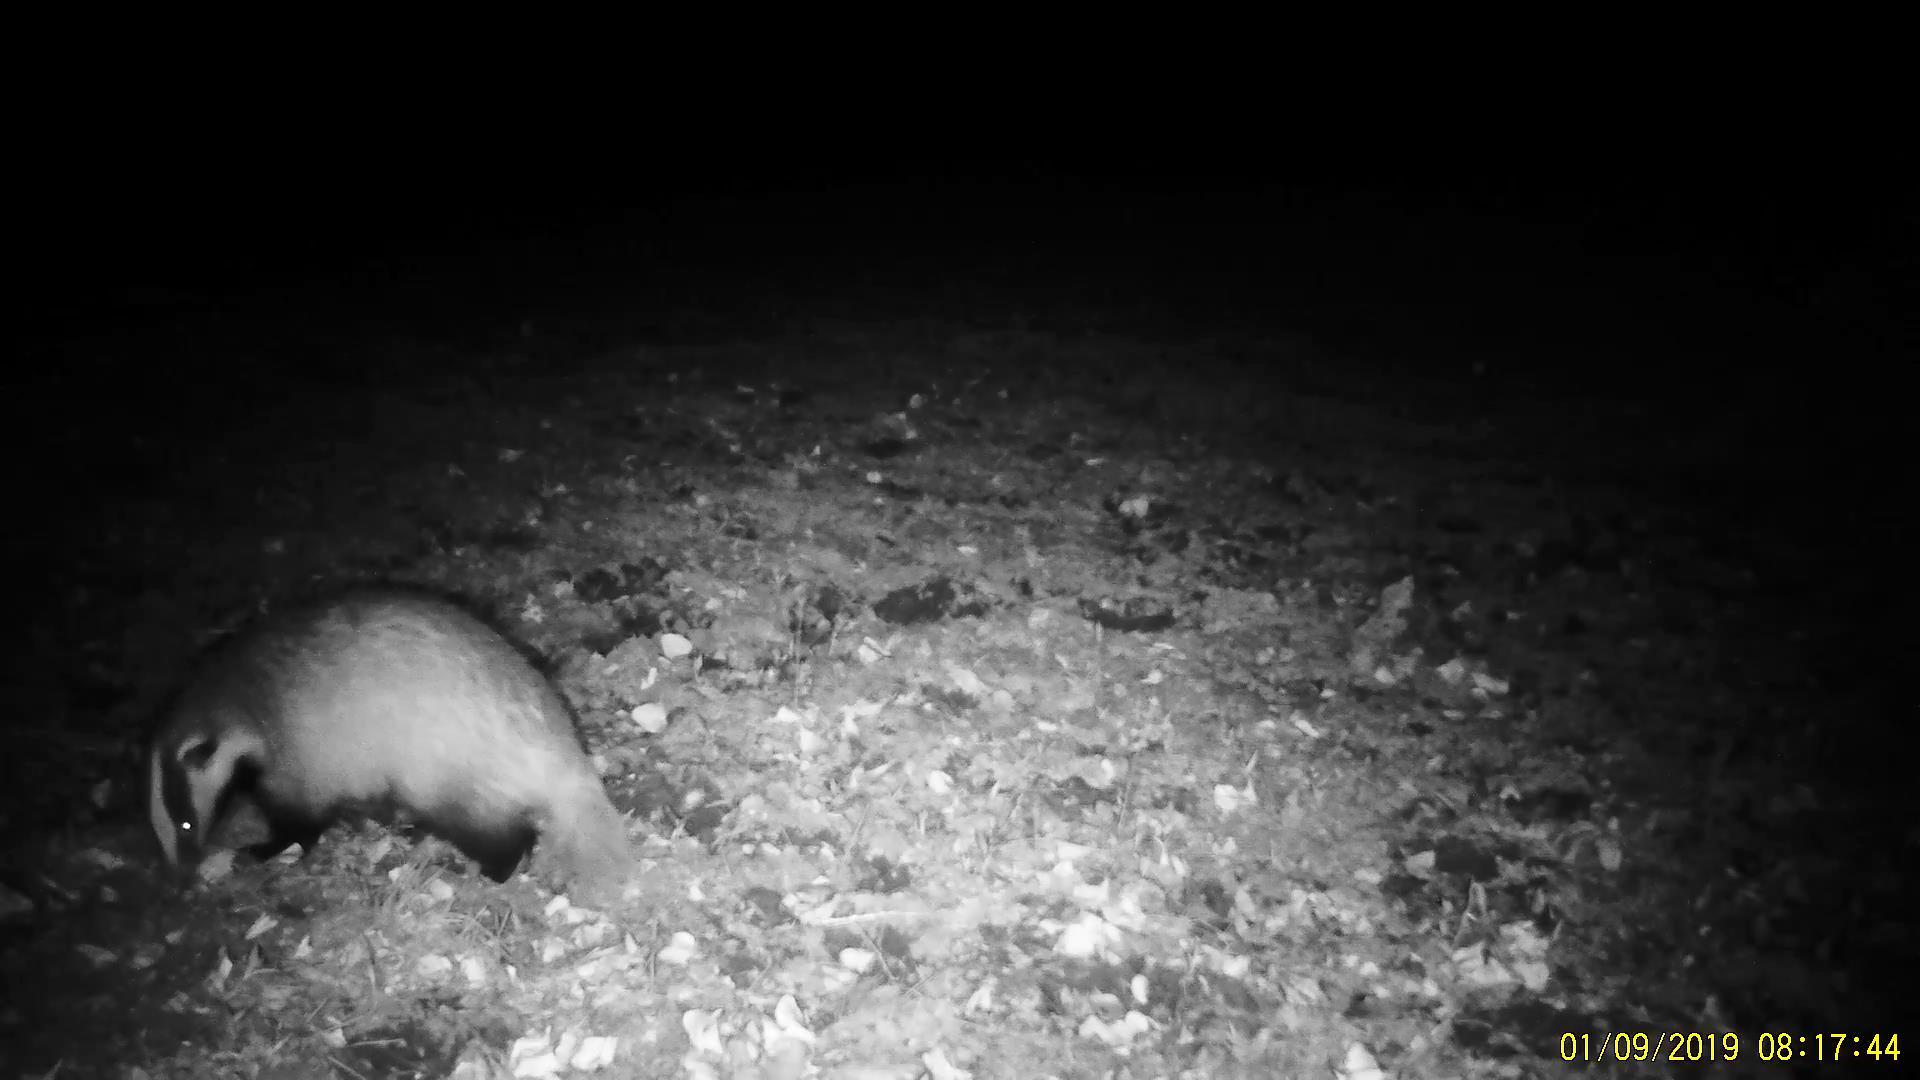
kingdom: Animalia
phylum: Chordata
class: Mammalia
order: Carnivora
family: Mustelidae
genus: Meles
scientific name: Meles leucurus
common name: Asian badger
